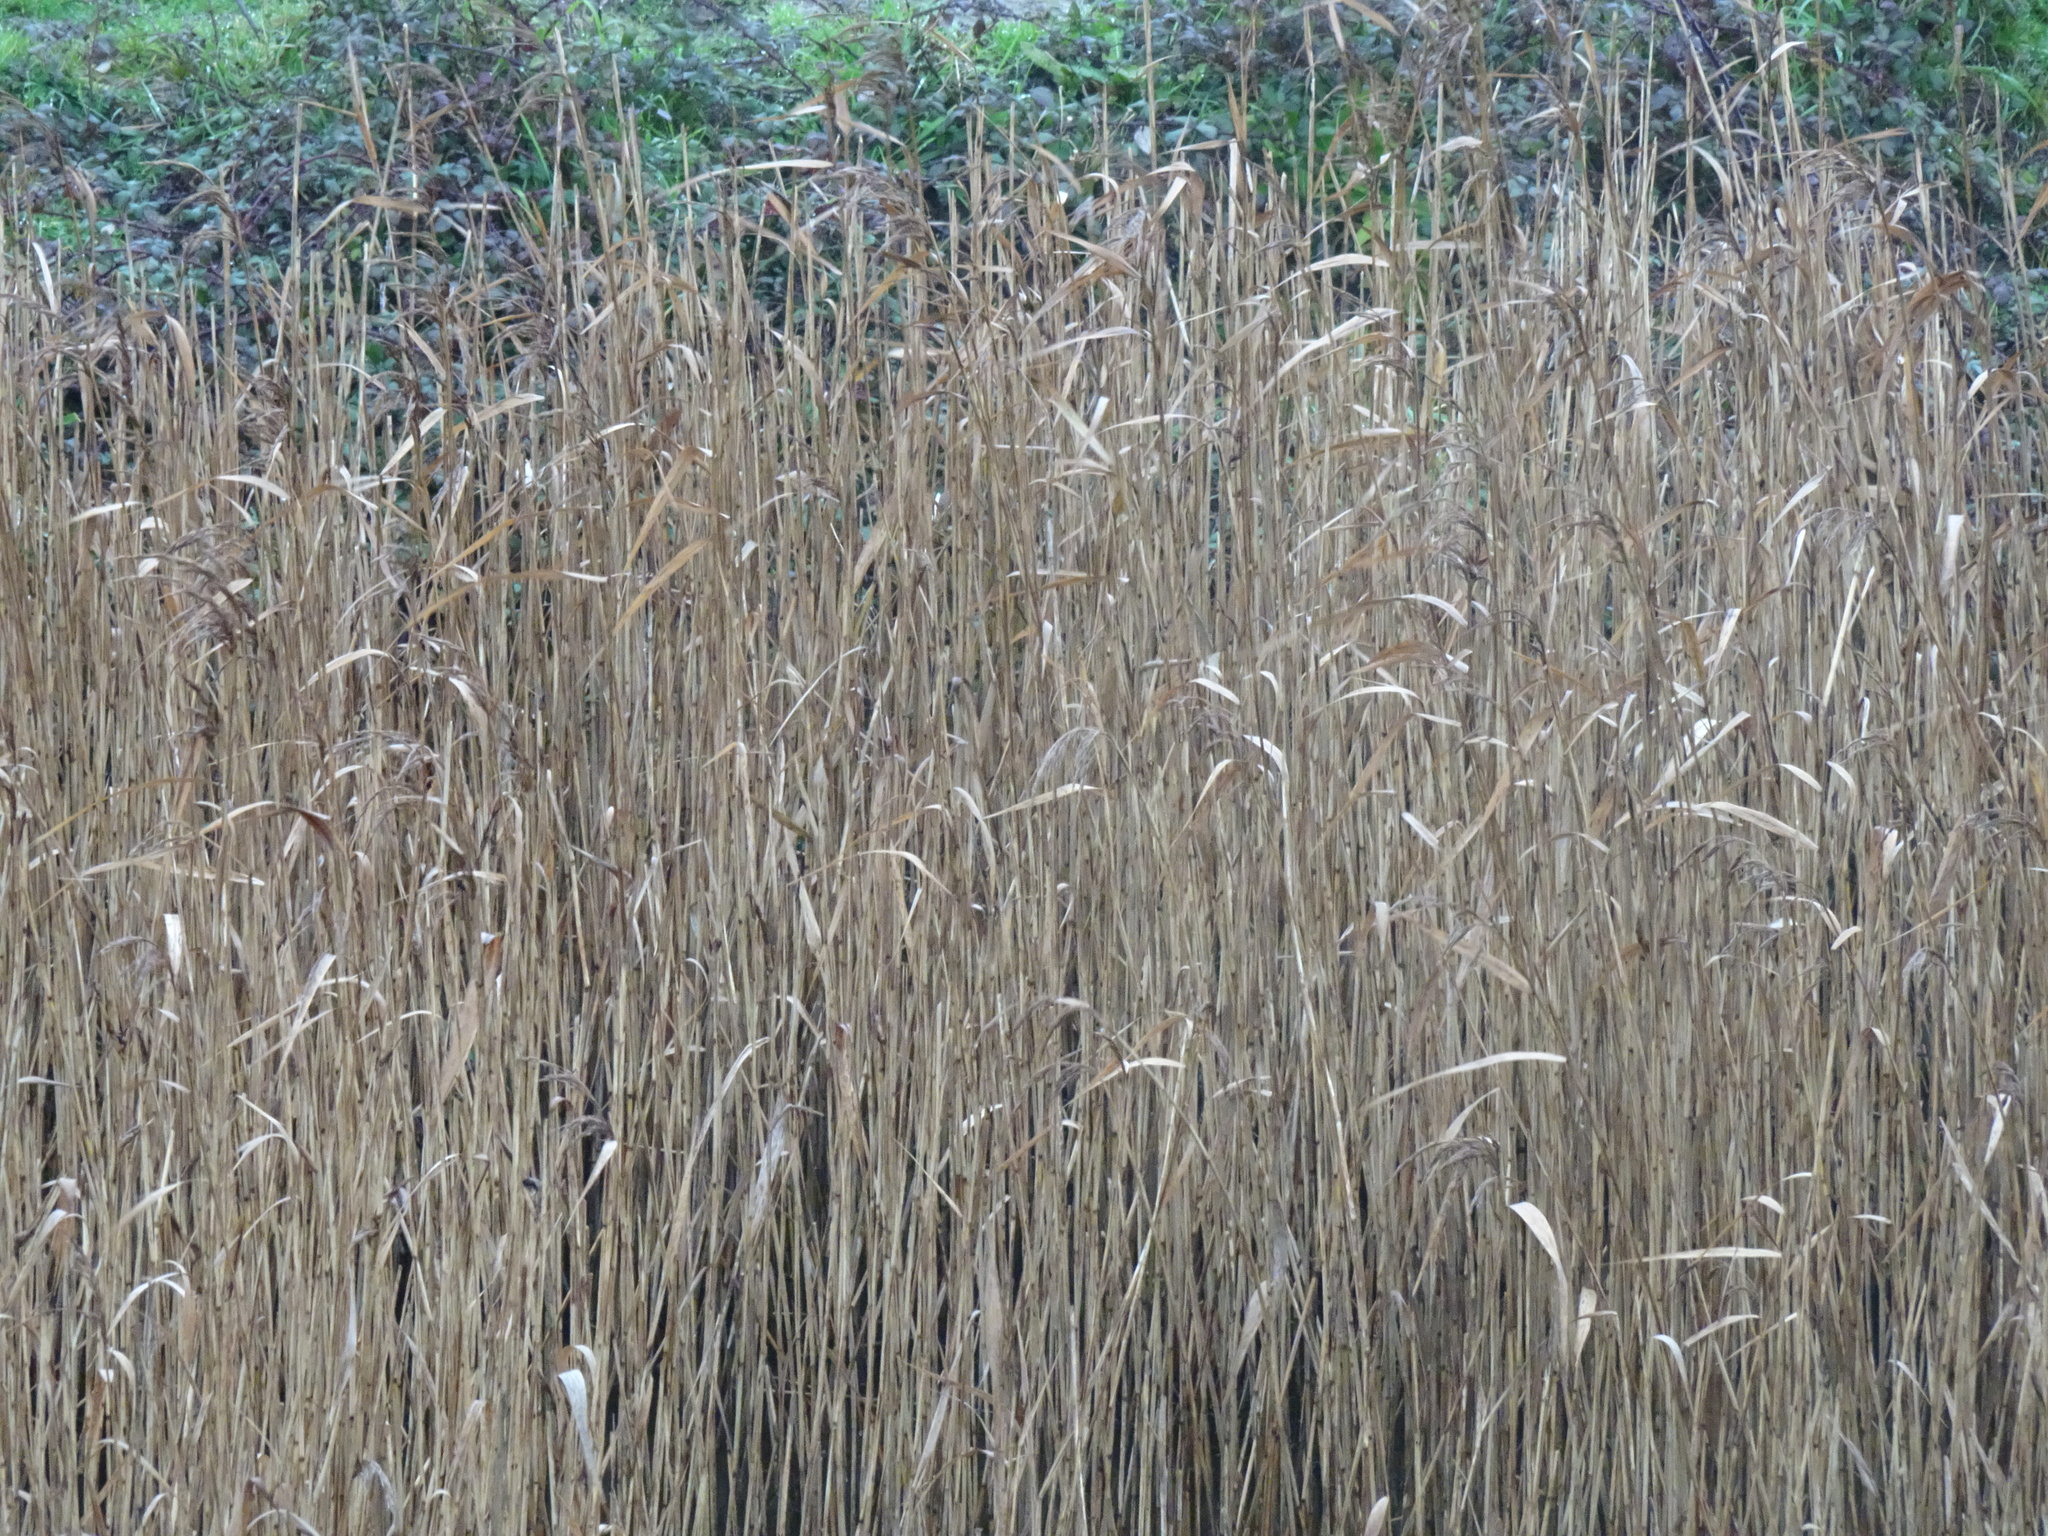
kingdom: Plantae
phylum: Tracheophyta
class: Liliopsida
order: Poales
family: Poaceae
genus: Phragmites
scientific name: Phragmites australis
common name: Common reed
